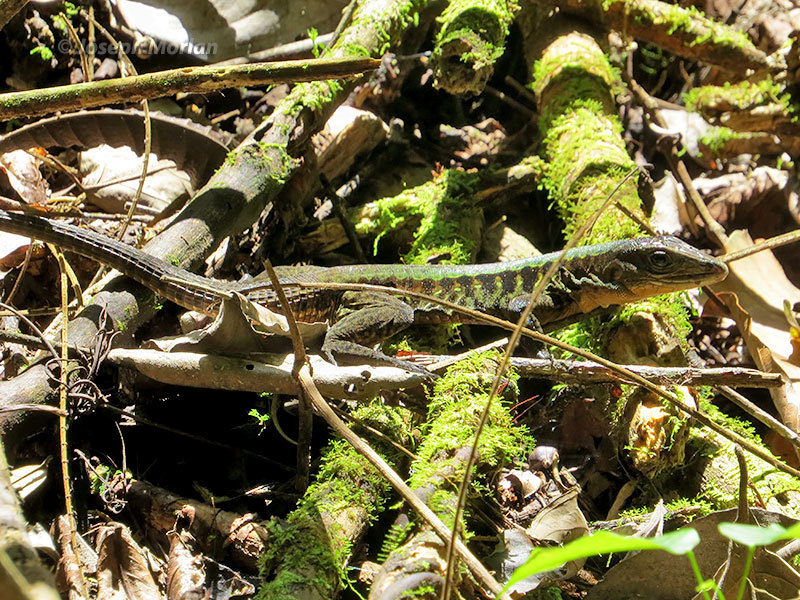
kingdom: Animalia
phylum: Chordata
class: Squamata
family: Teiidae
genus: Holcosus
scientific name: Holcosus leptophrys
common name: Delicate ameiva
